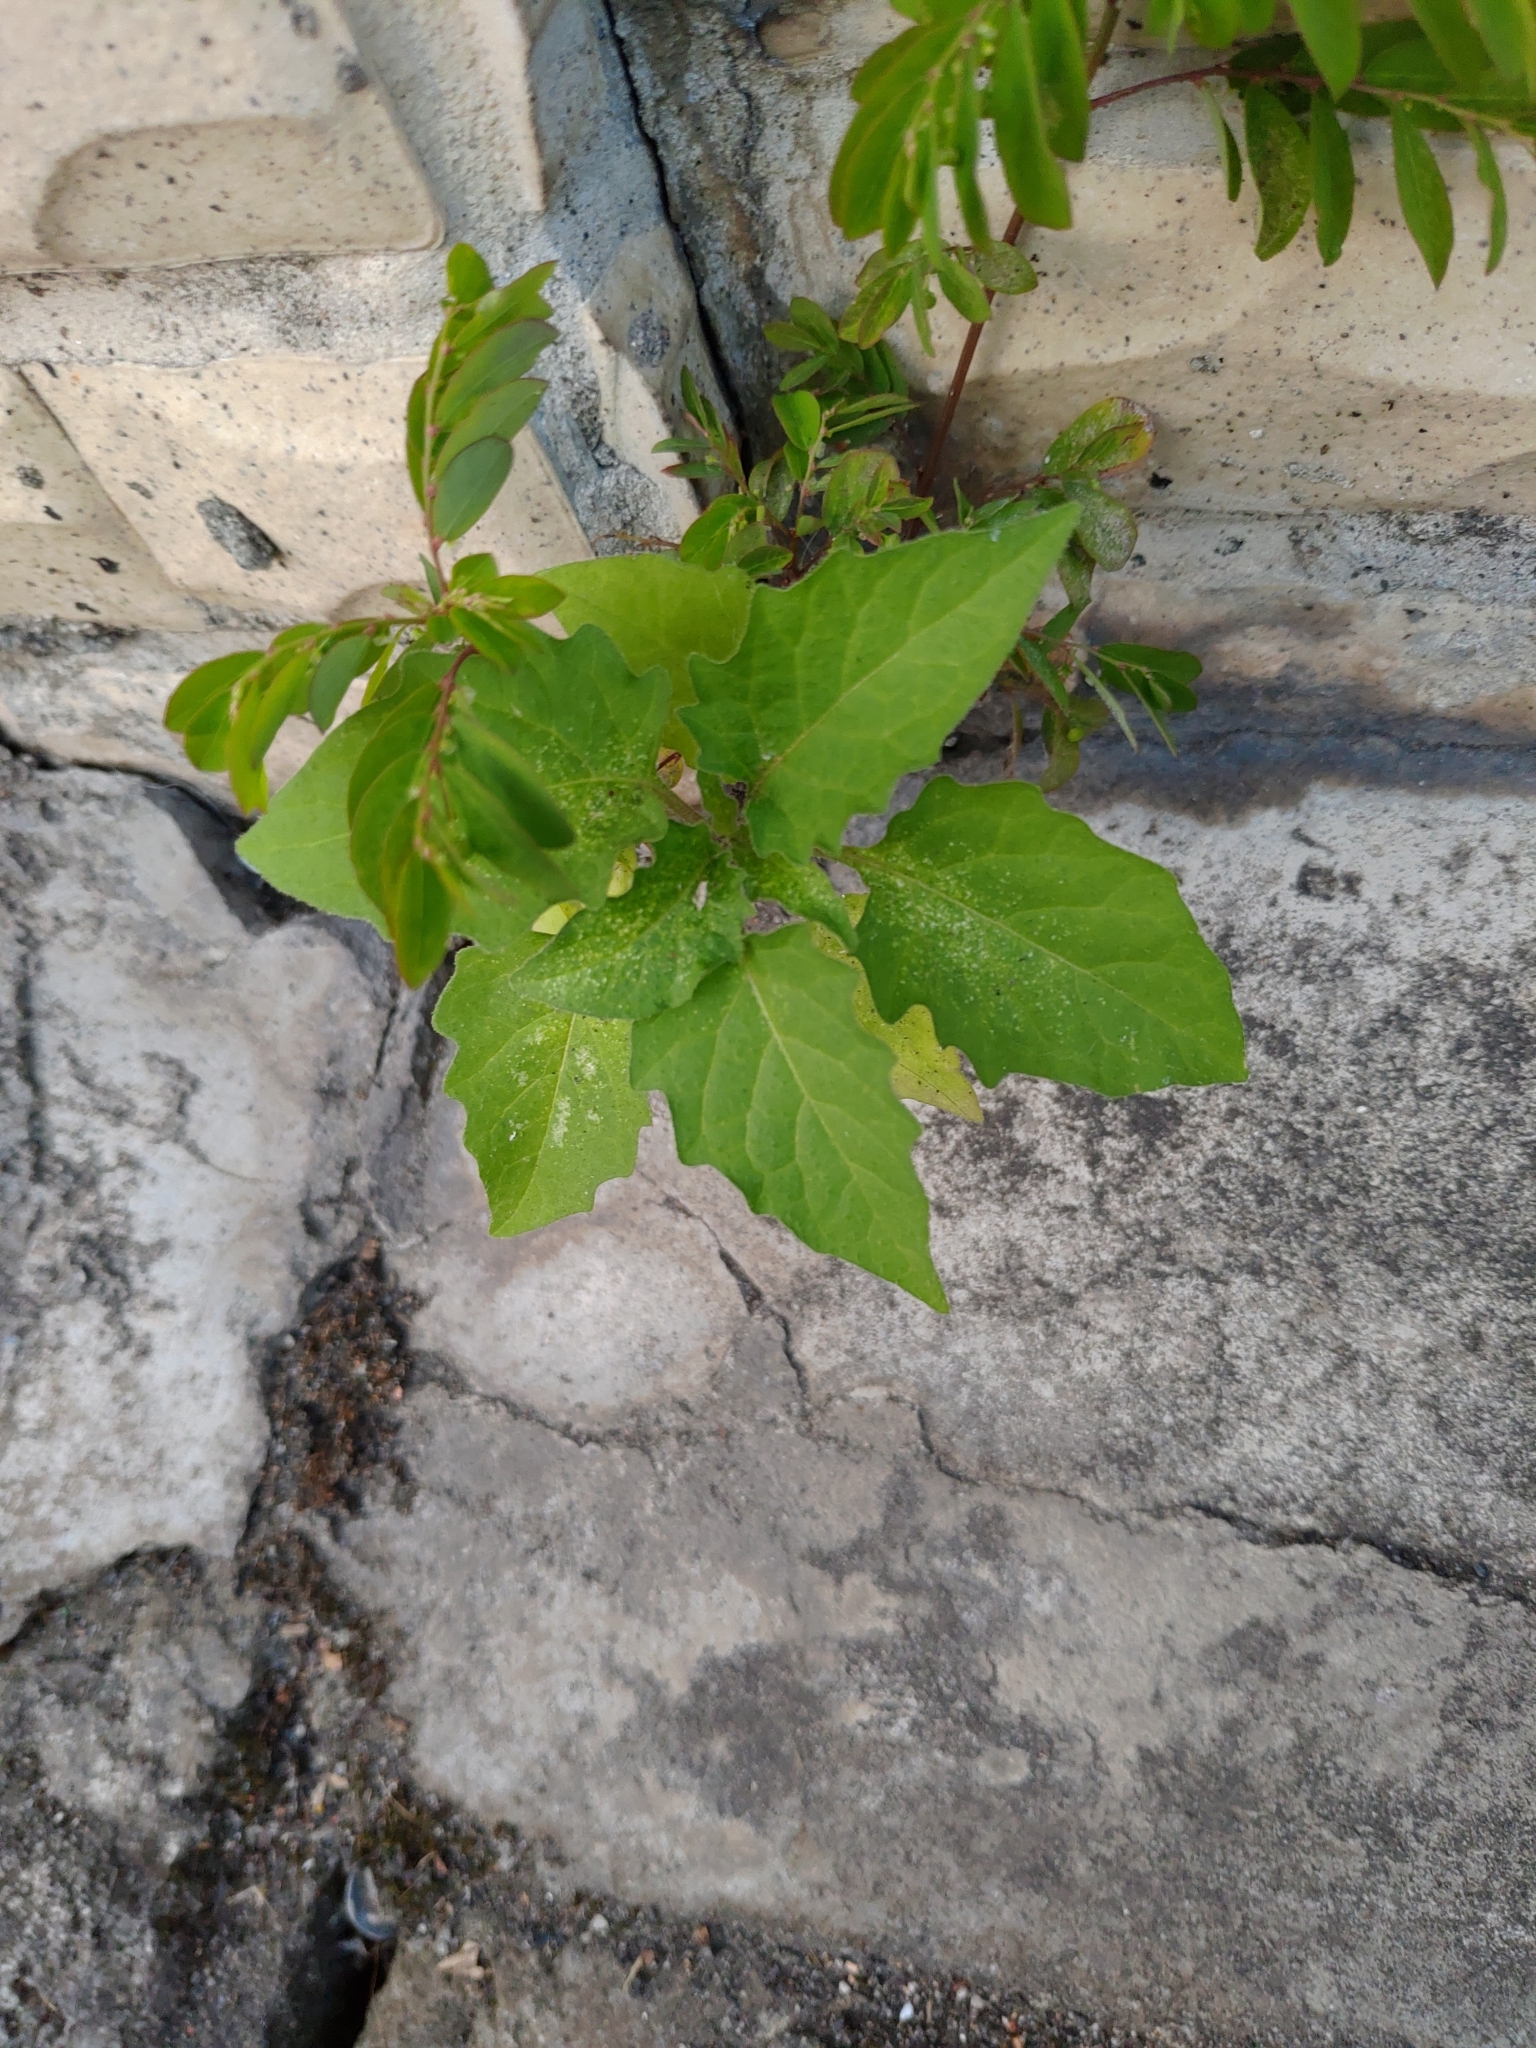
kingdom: Plantae
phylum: Tracheophyta
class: Magnoliopsida
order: Solanales
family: Solanaceae
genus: Solanum
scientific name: Solanum
